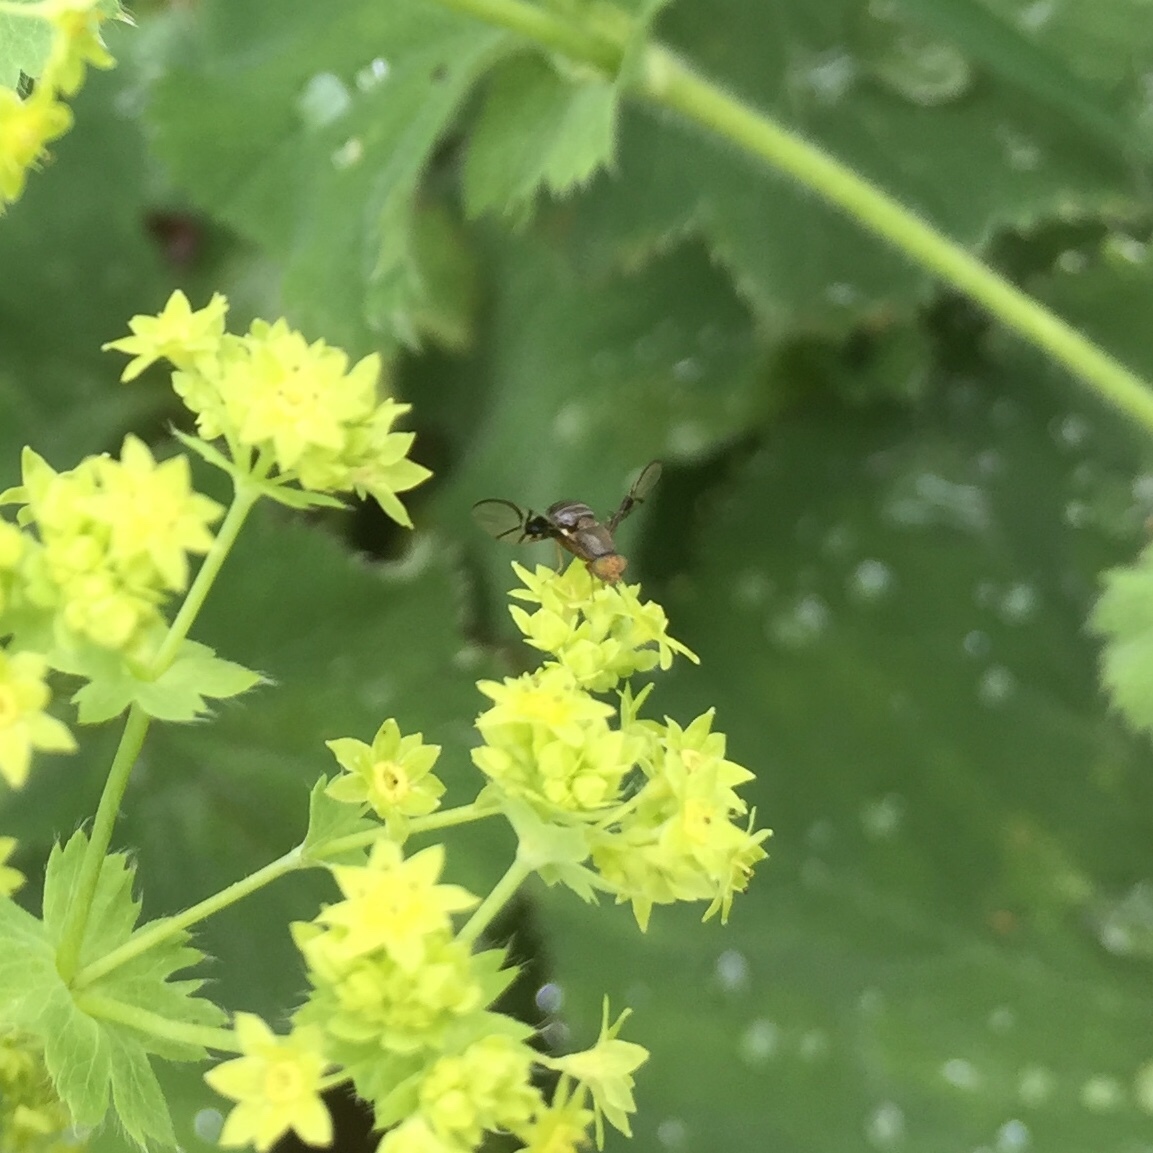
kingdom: Animalia
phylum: Arthropoda
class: Insecta
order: Diptera
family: Tephritidae
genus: Anomoia
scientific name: Anomoia purmunda
